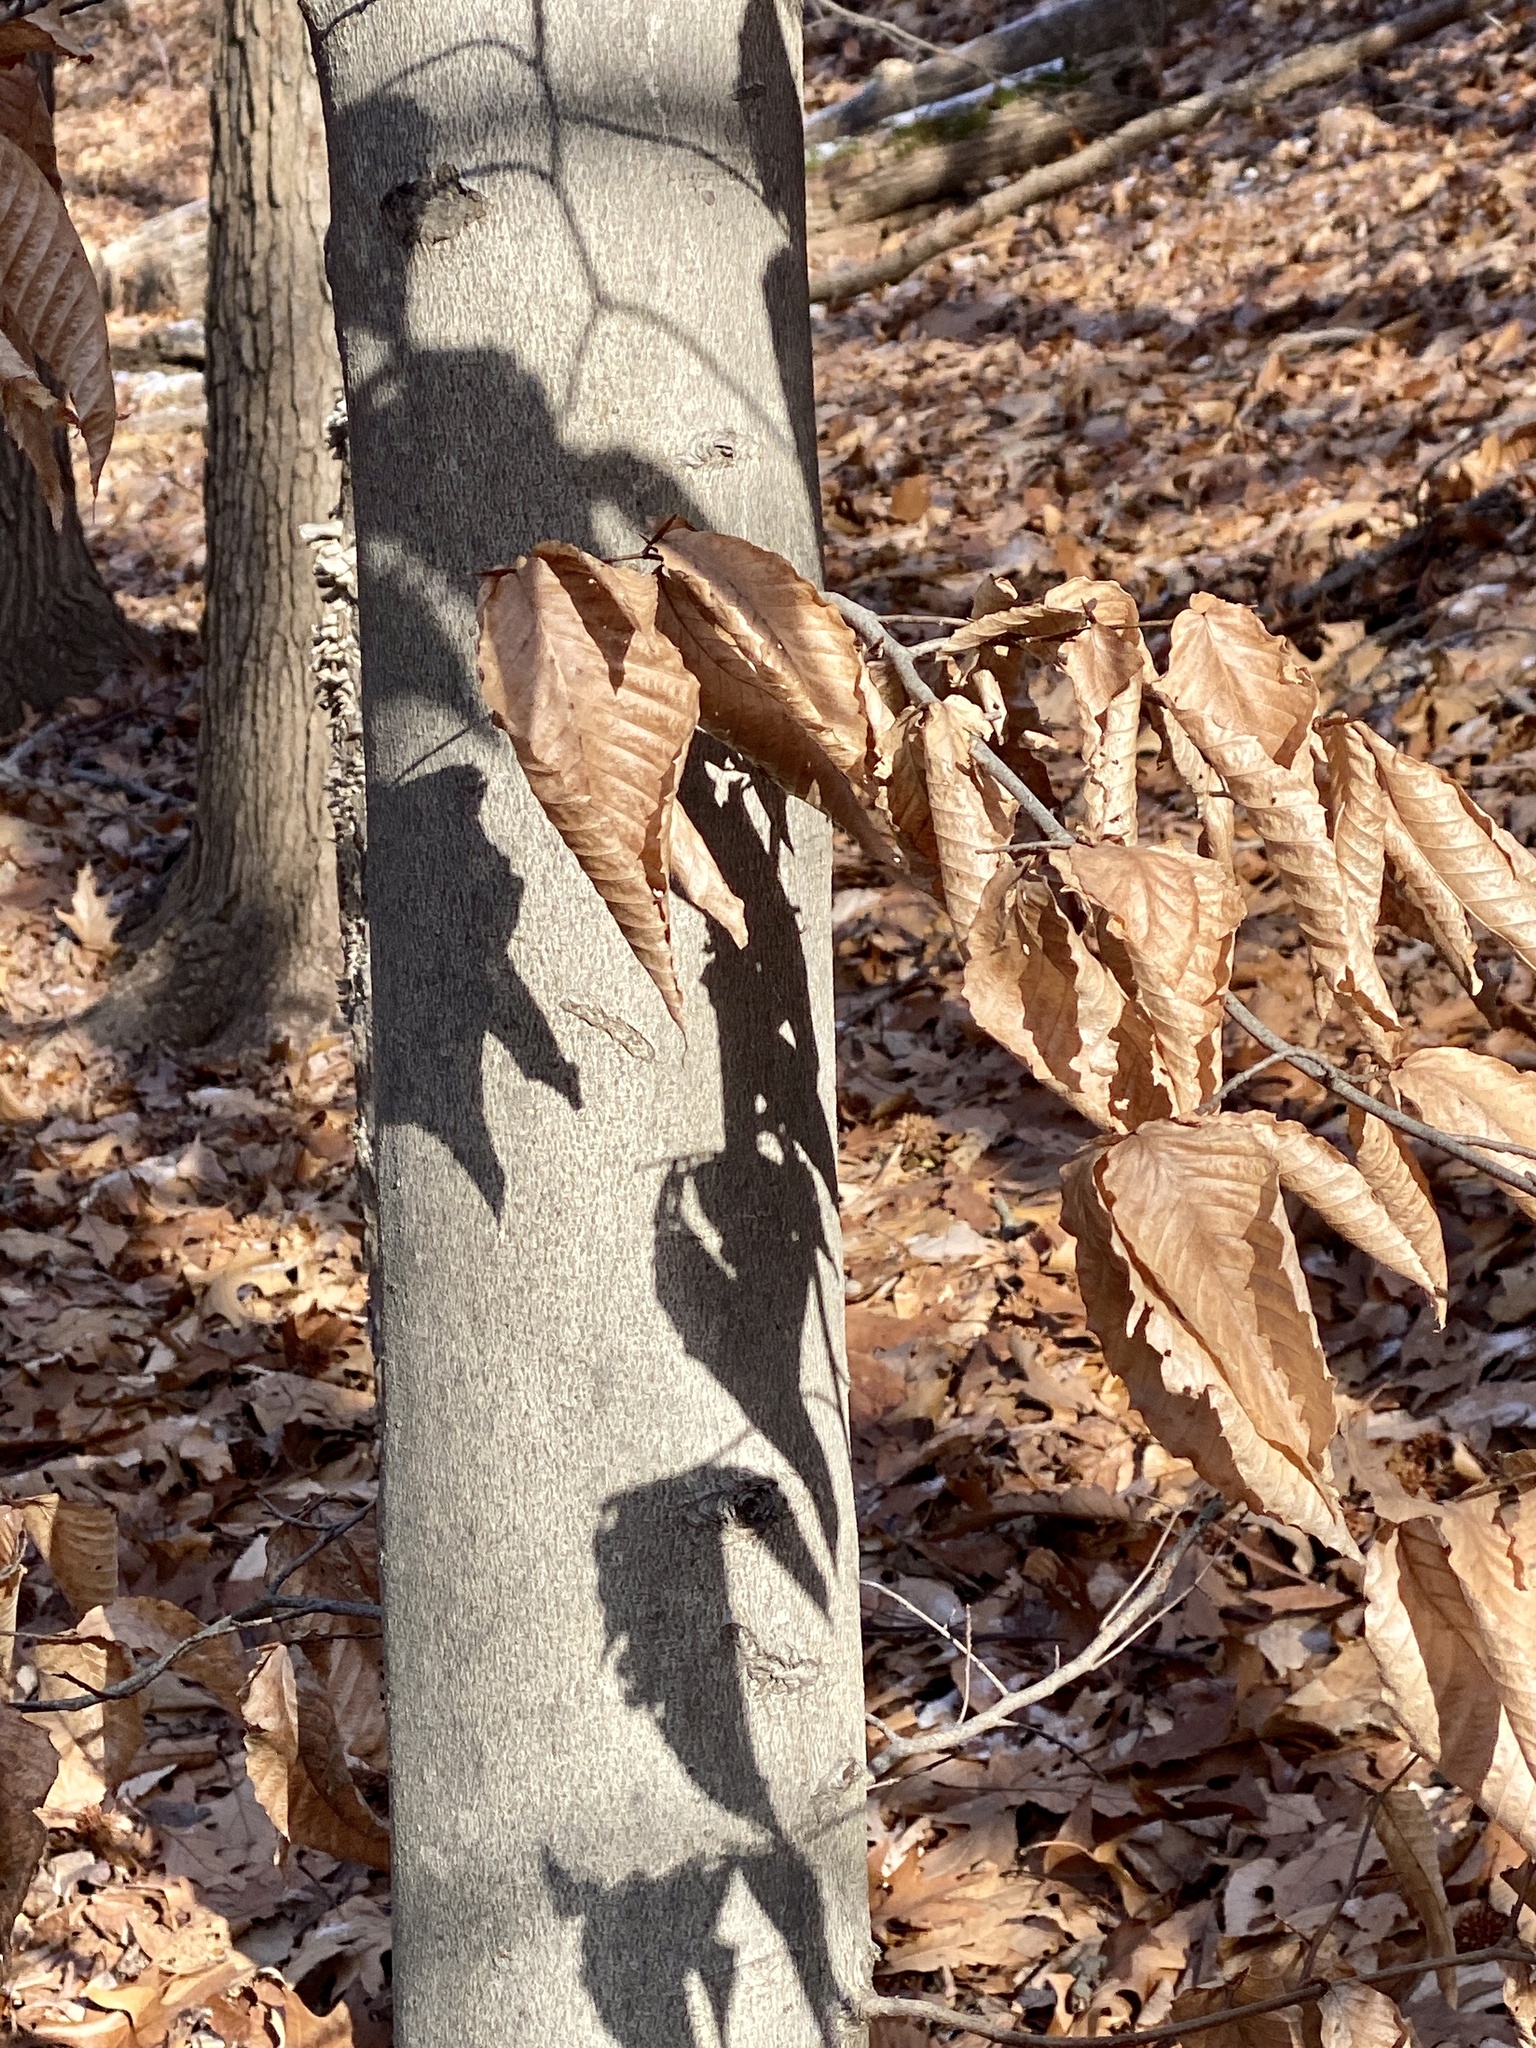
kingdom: Plantae
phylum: Tracheophyta
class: Magnoliopsida
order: Fagales
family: Fagaceae
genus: Fagus
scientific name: Fagus grandifolia
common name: American beech
